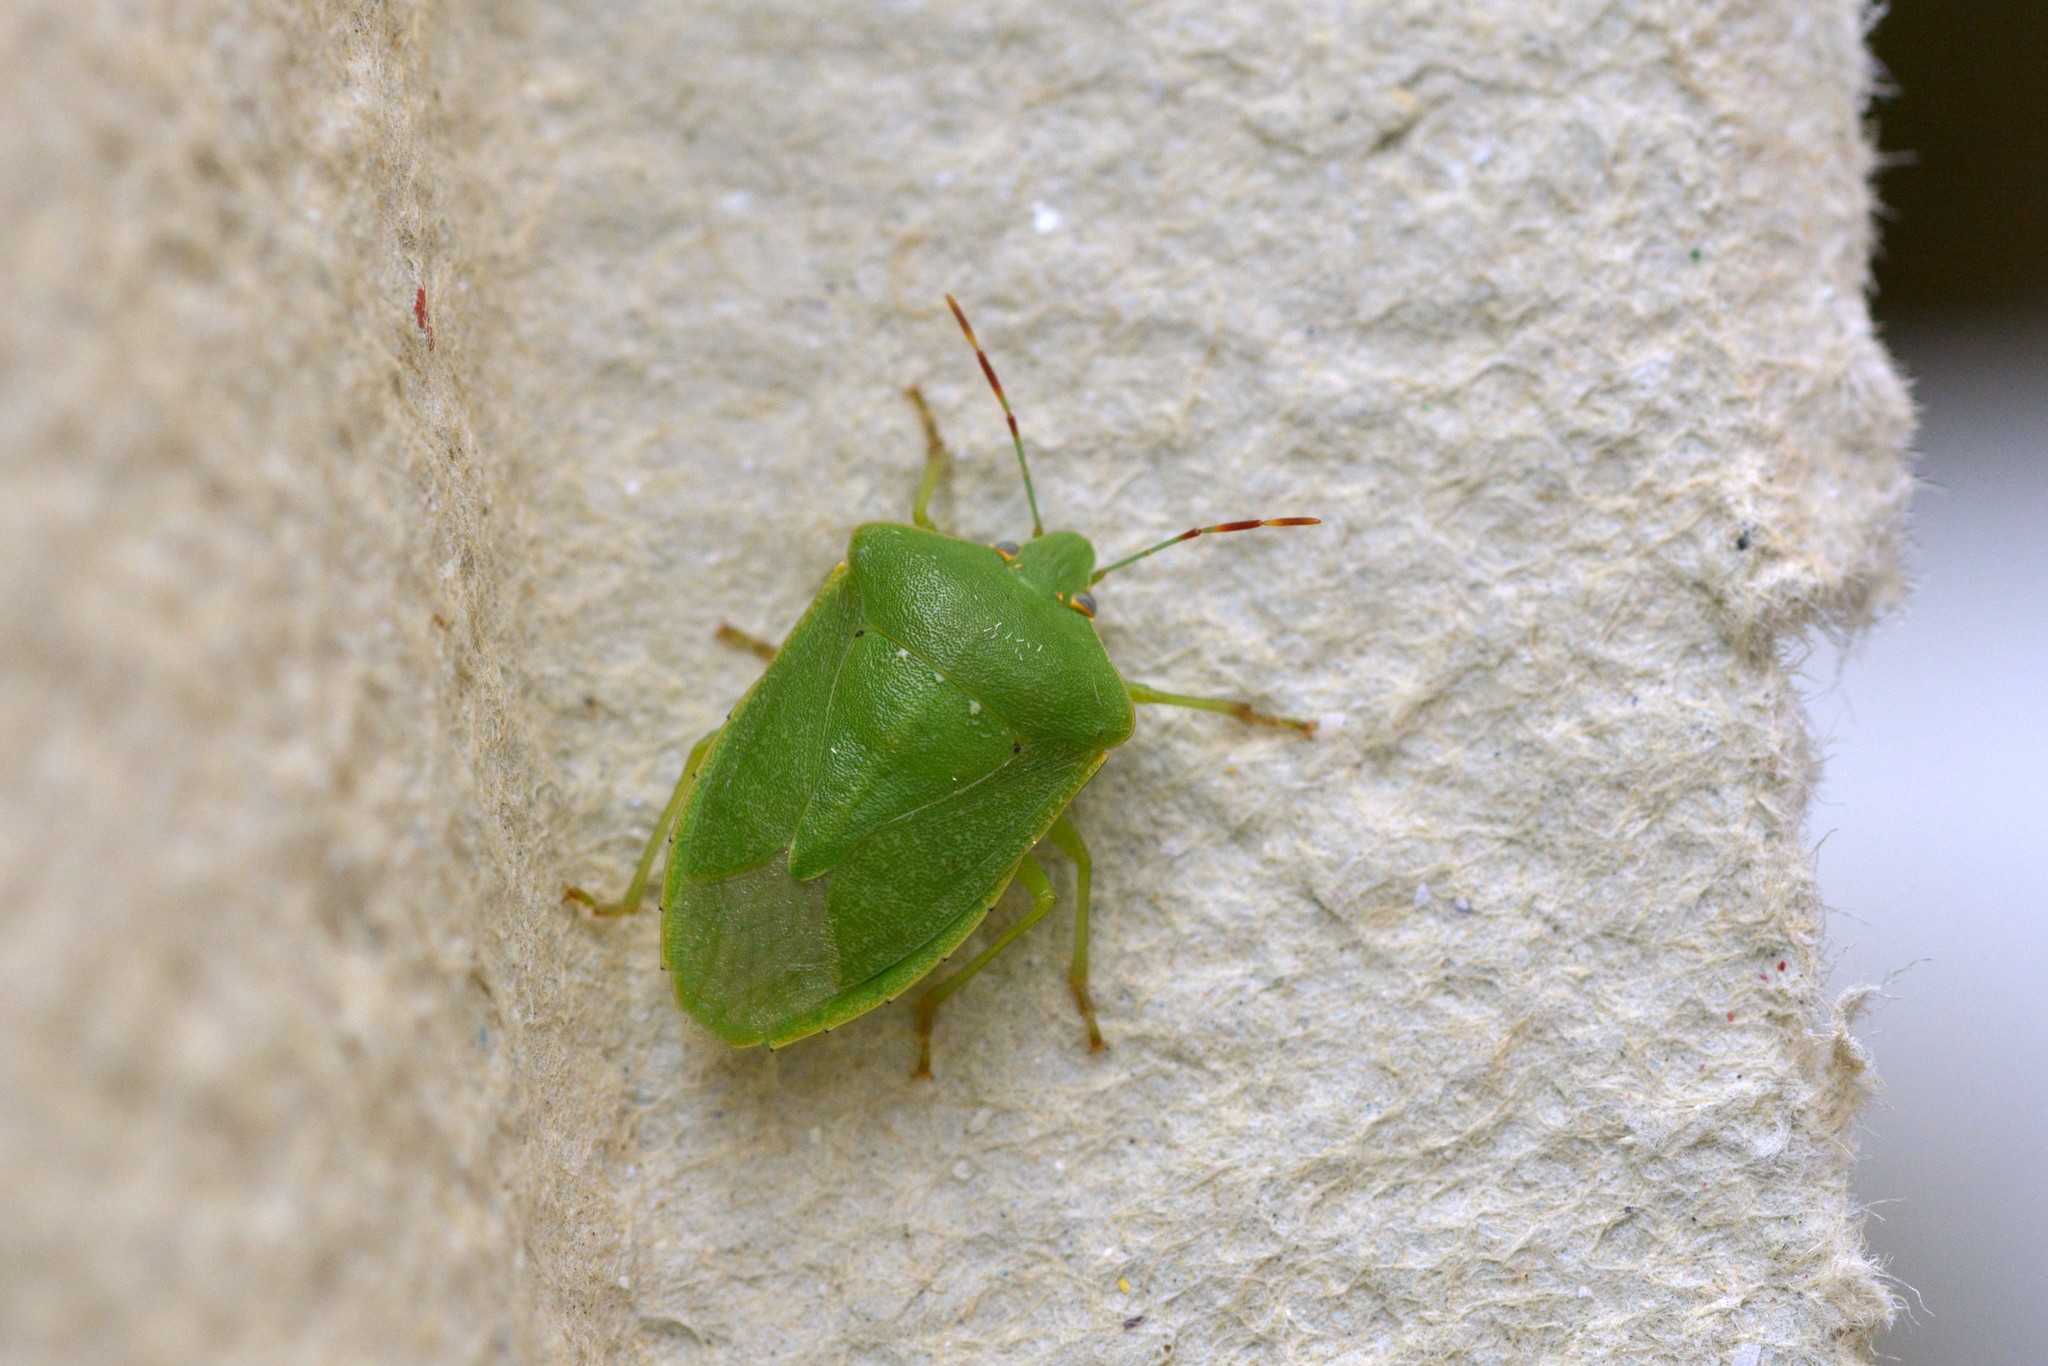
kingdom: Animalia
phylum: Arthropoda
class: Insecta
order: Hemiptera
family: Pentatomidae
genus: Nezara
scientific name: Nezara viridula
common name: Southern green stink bug
